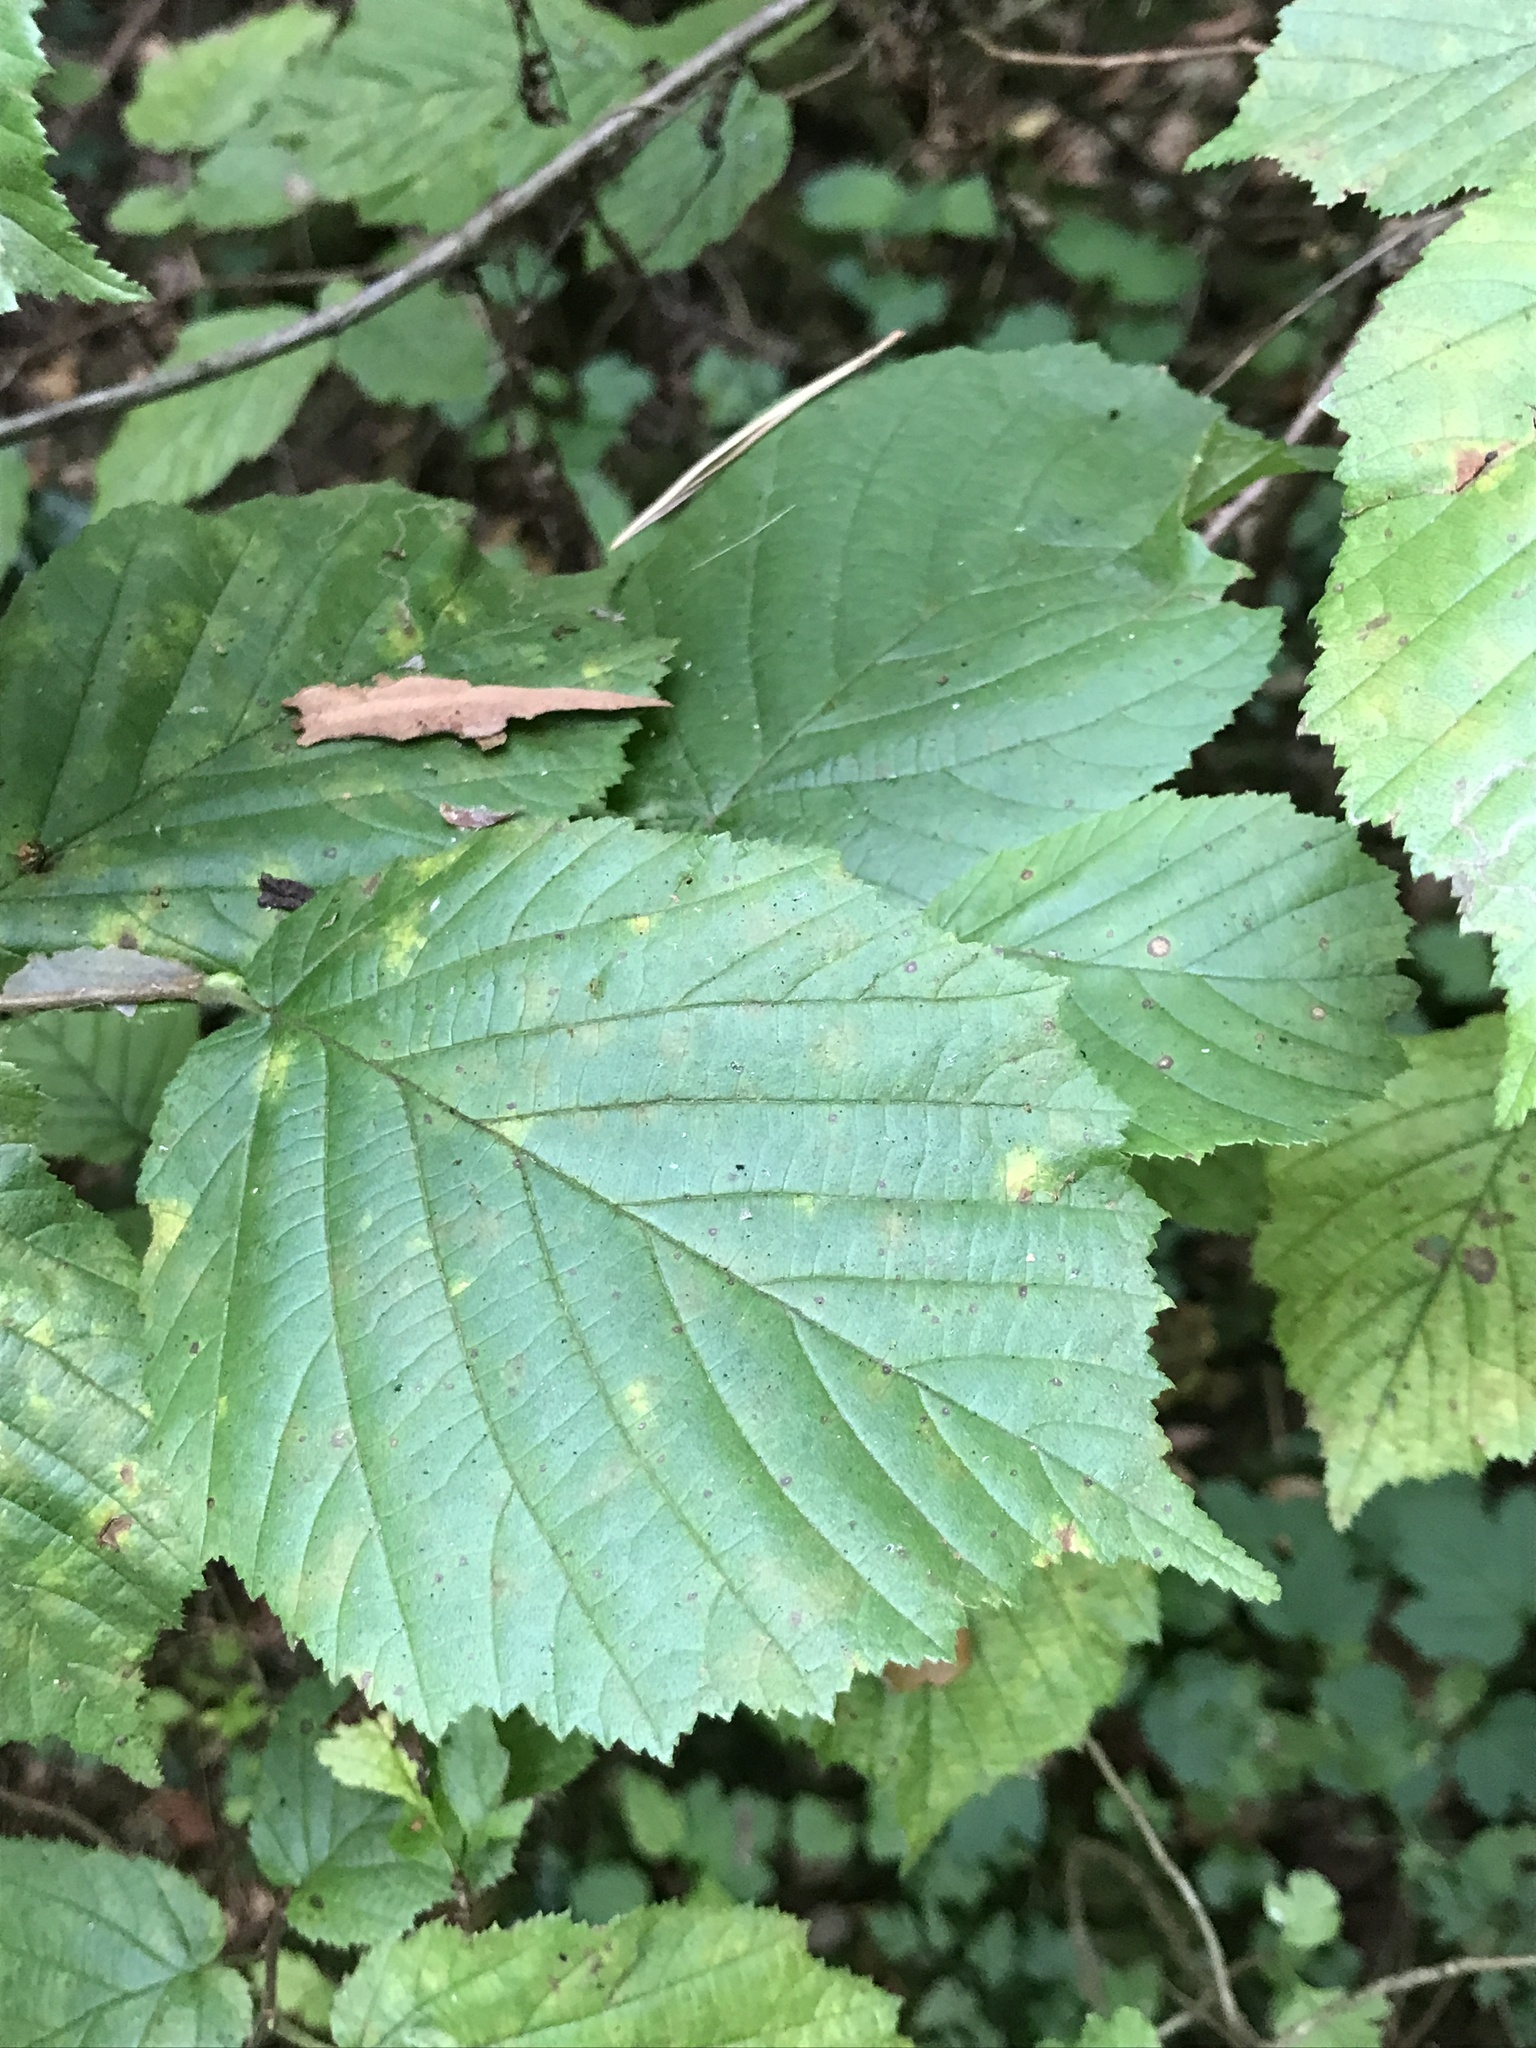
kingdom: Plantae
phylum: Tracheophyta
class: Magnoliopsida
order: Fagales
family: Betulaceae
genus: Corylus
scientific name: Corylus avellana
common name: European hazel
